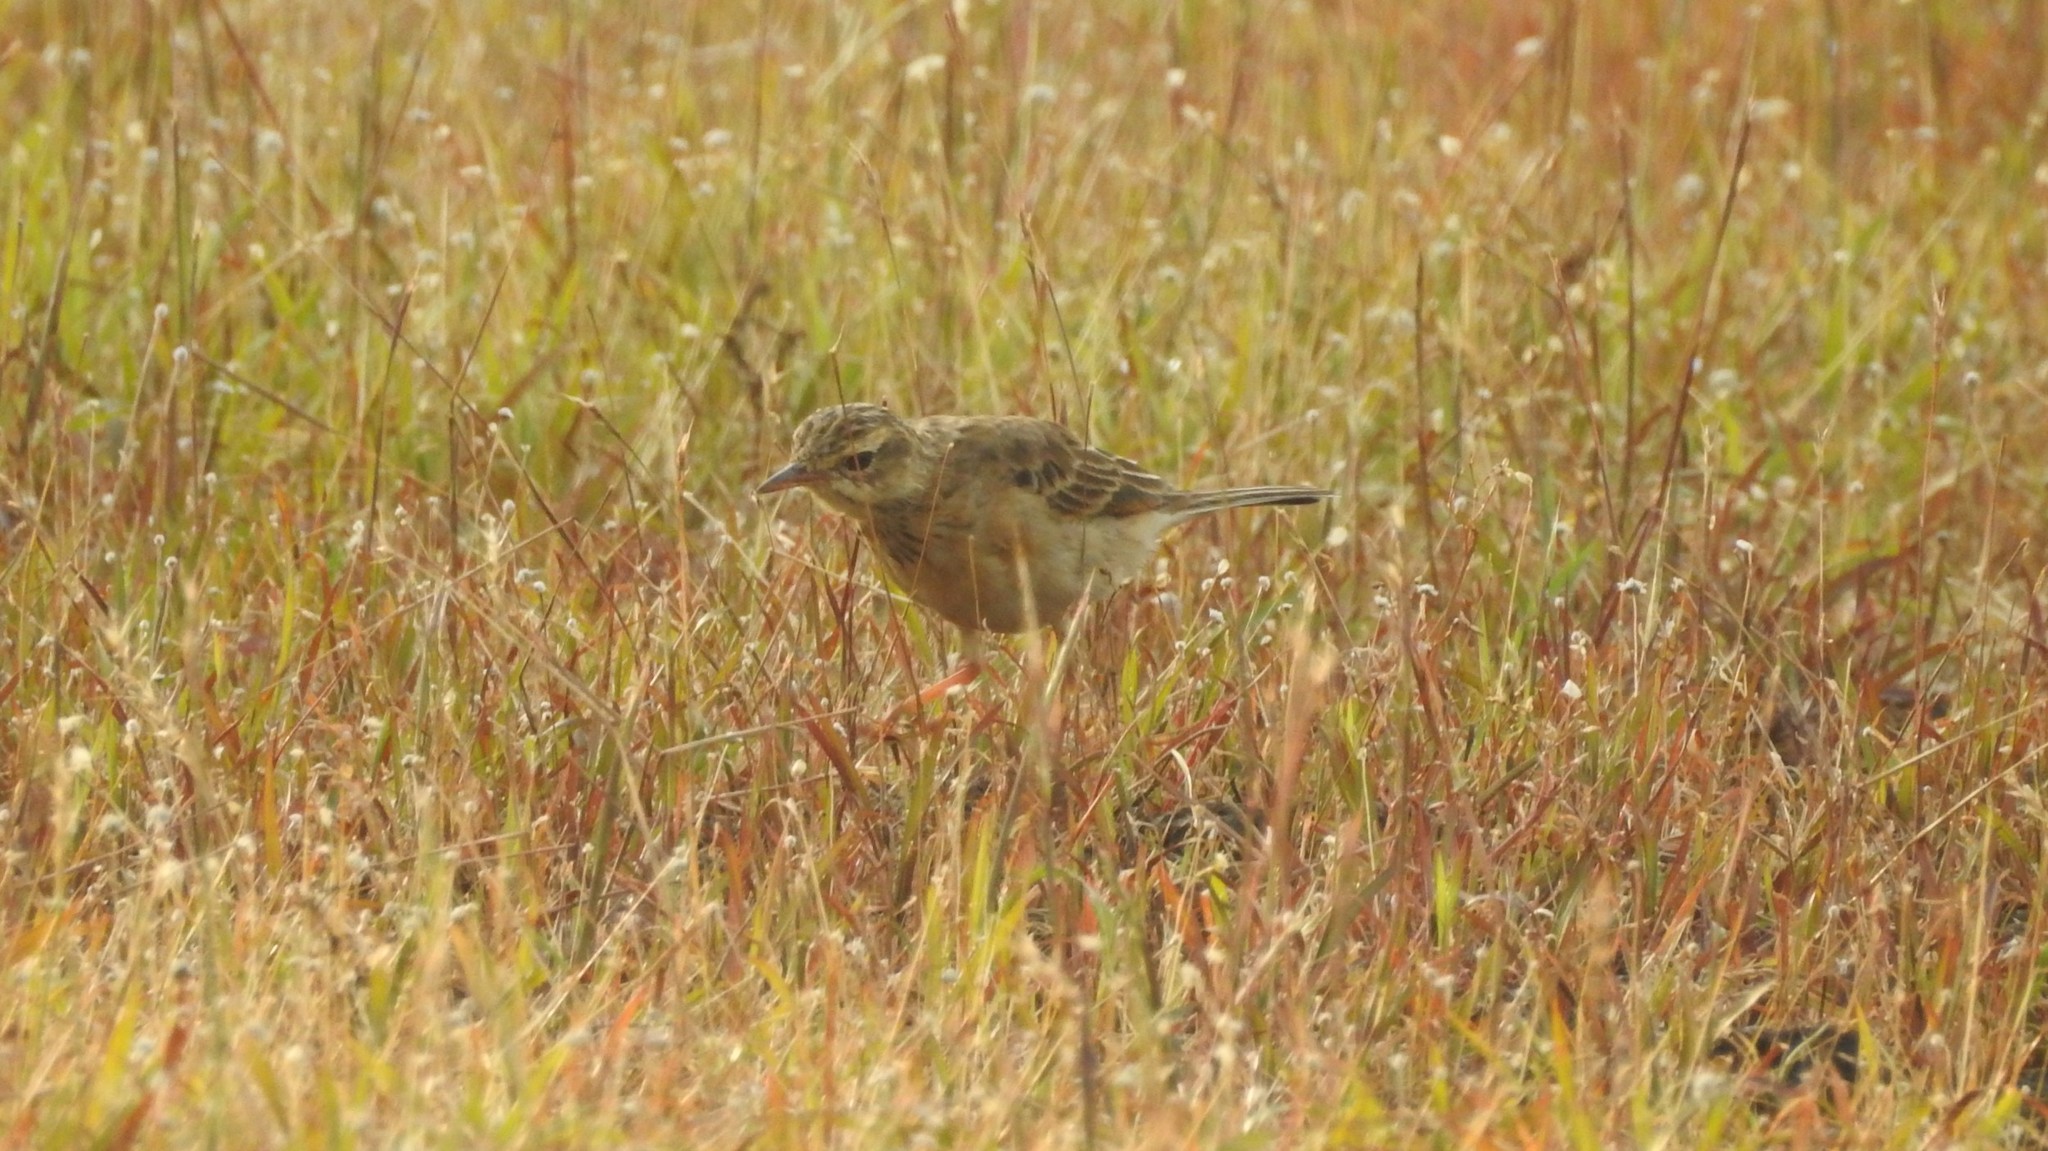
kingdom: Animalia
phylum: Chordata
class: Aves
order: Passeriformes
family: Motacillidae
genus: Anthus
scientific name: Anthus rufulus
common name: Paddyfield pipit
